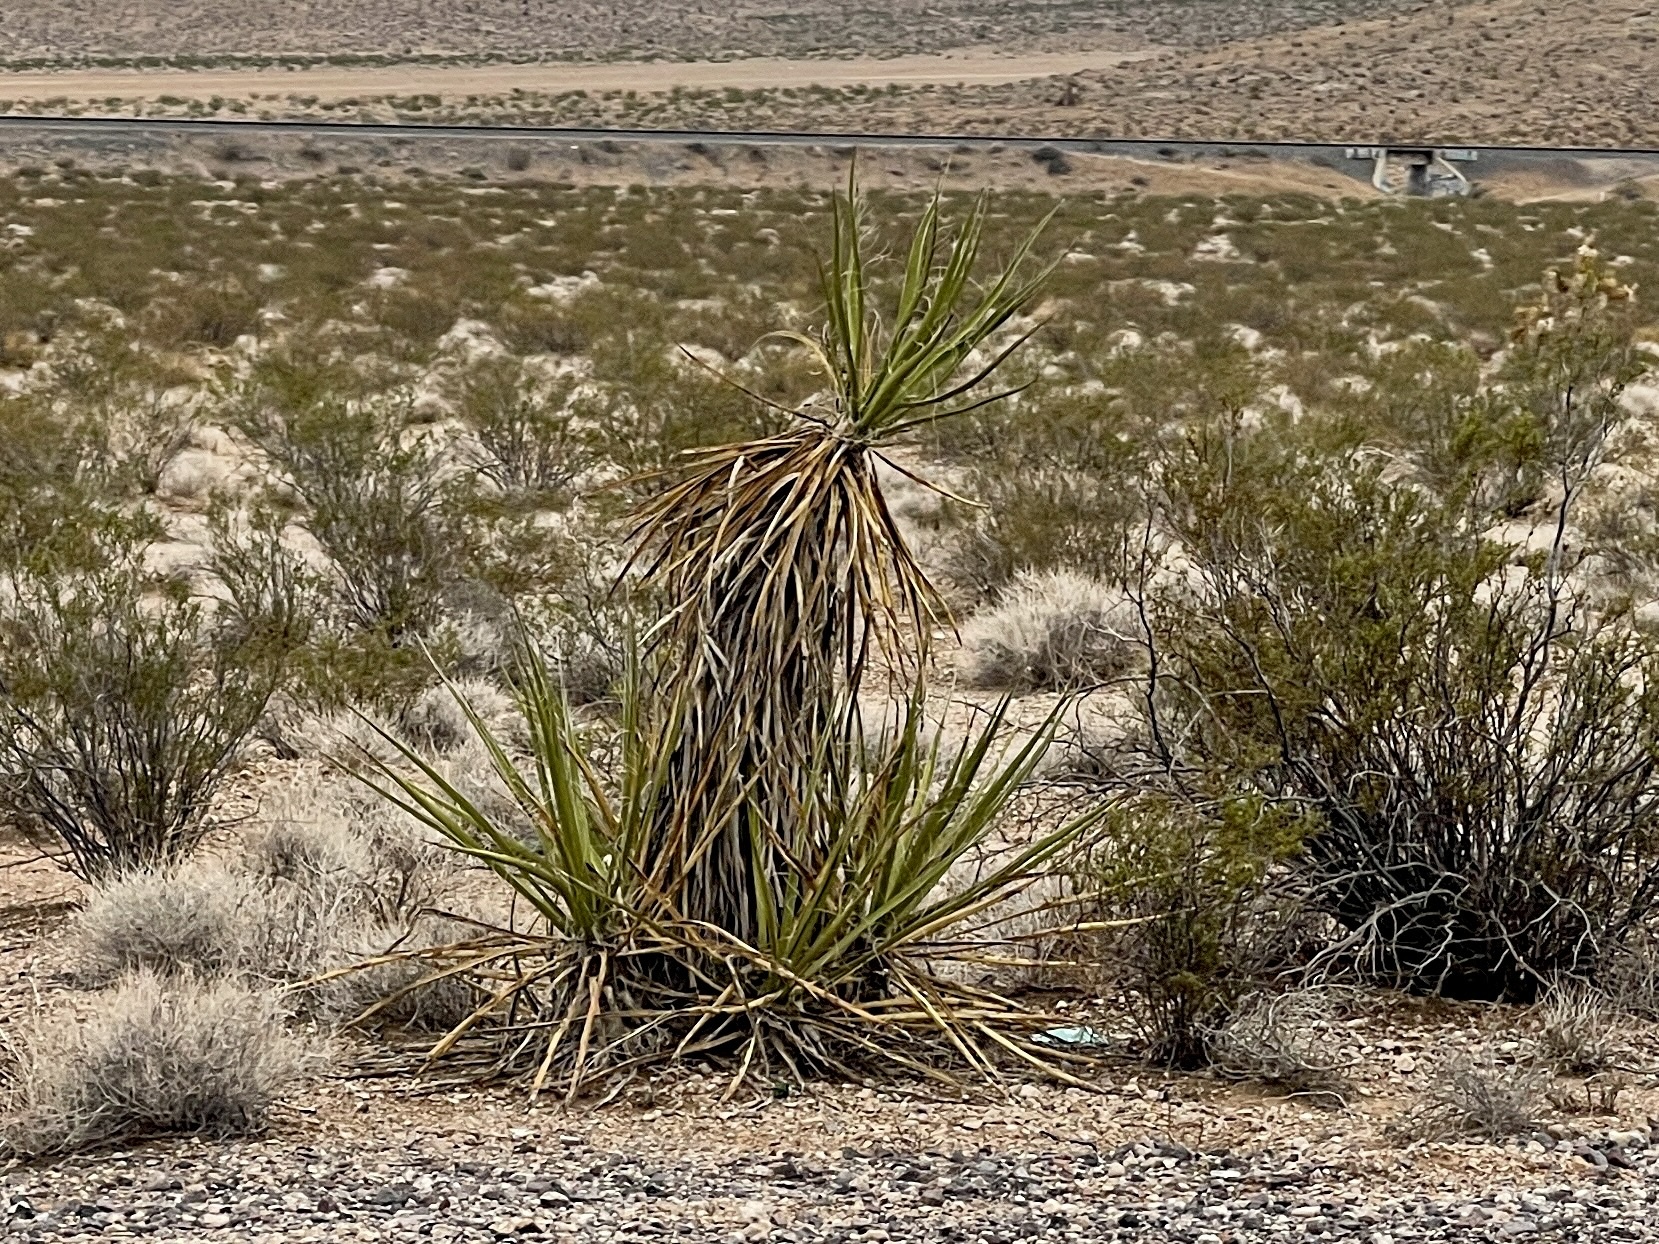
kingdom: Plantae
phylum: Tracheophyta
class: Liliopsida
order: Asparagales
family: Asparagaceae
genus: Yucca
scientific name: Yucca schidigera
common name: Mojave yucca
